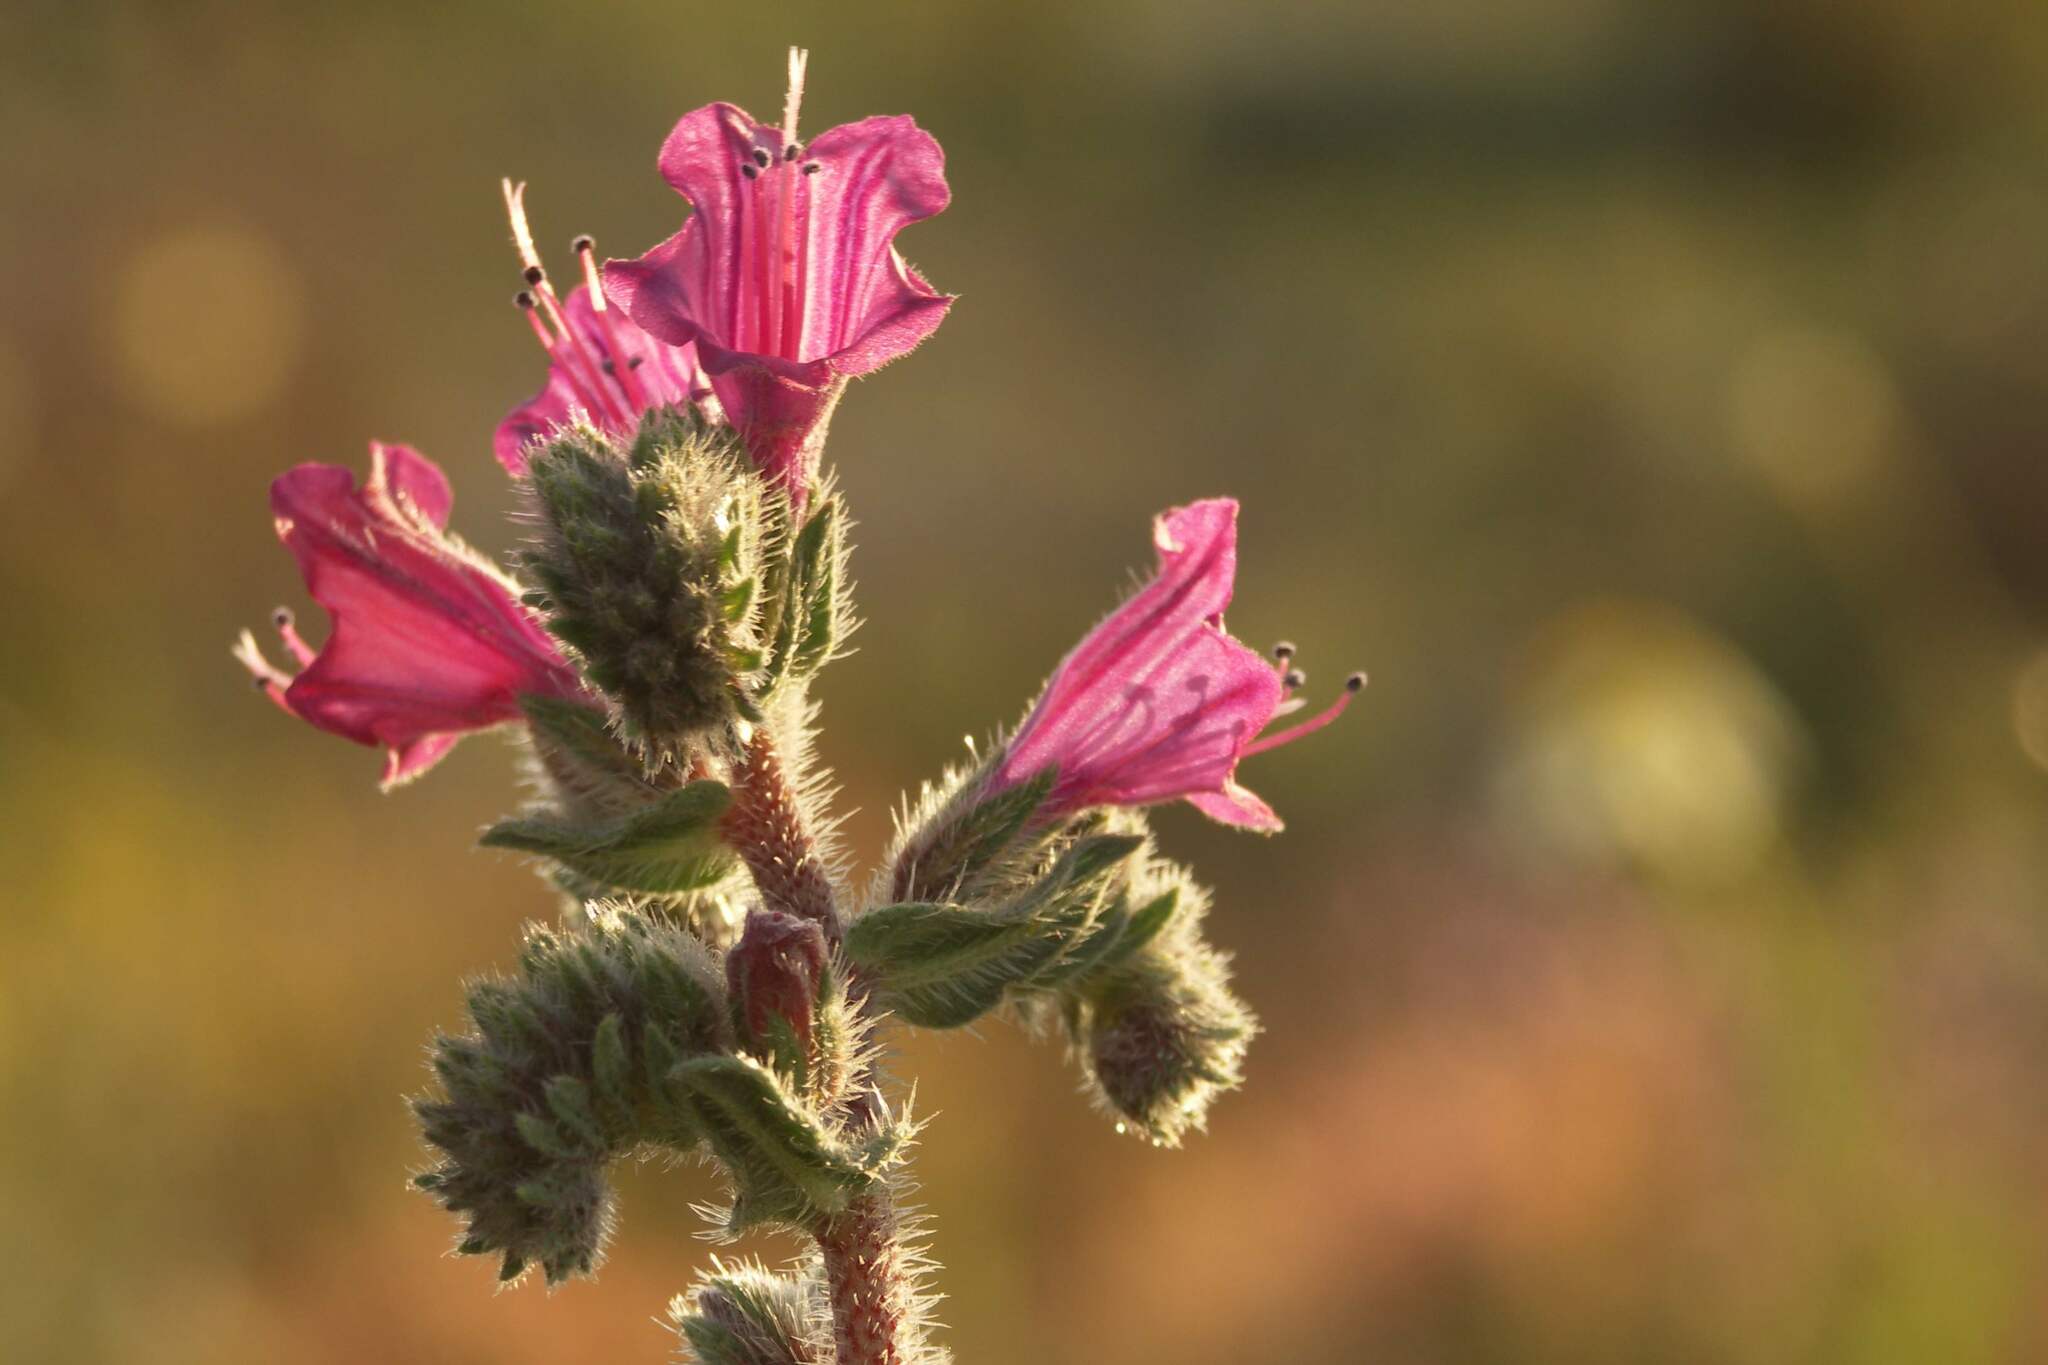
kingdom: Plantae
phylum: Tracheophyta
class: Magnoliopsida
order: Boraginales
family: Boraginaceae
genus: Echium
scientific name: Echium angustifolium
